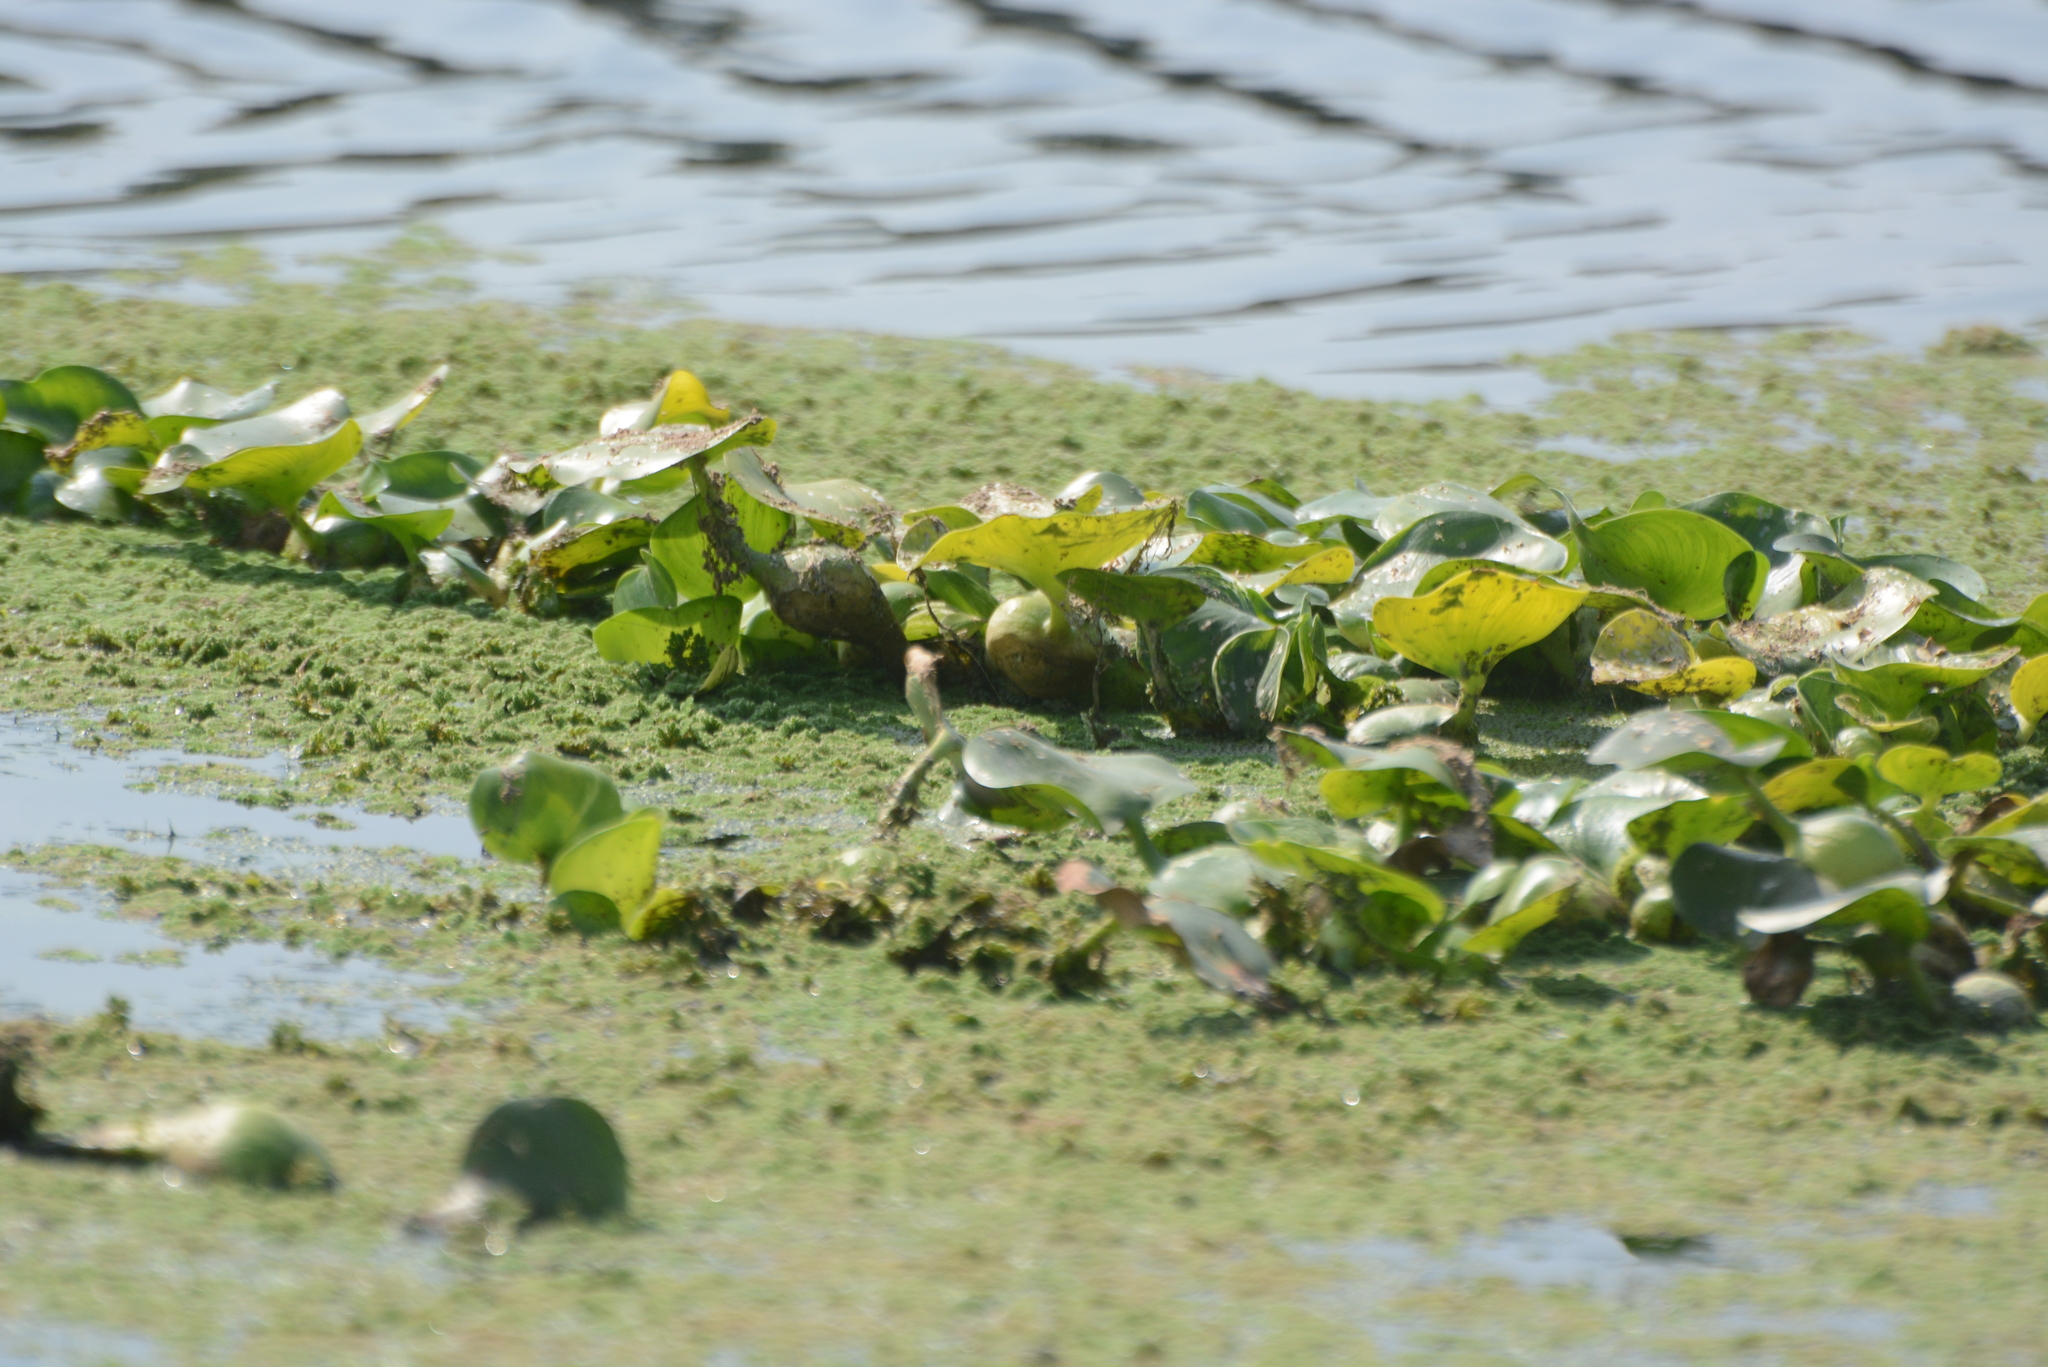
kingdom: Plantae
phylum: Tracheophyta
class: Liliopsida
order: Commelinales
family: Pontederiaceae
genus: Pontederia
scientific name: Pontederia crassipes
